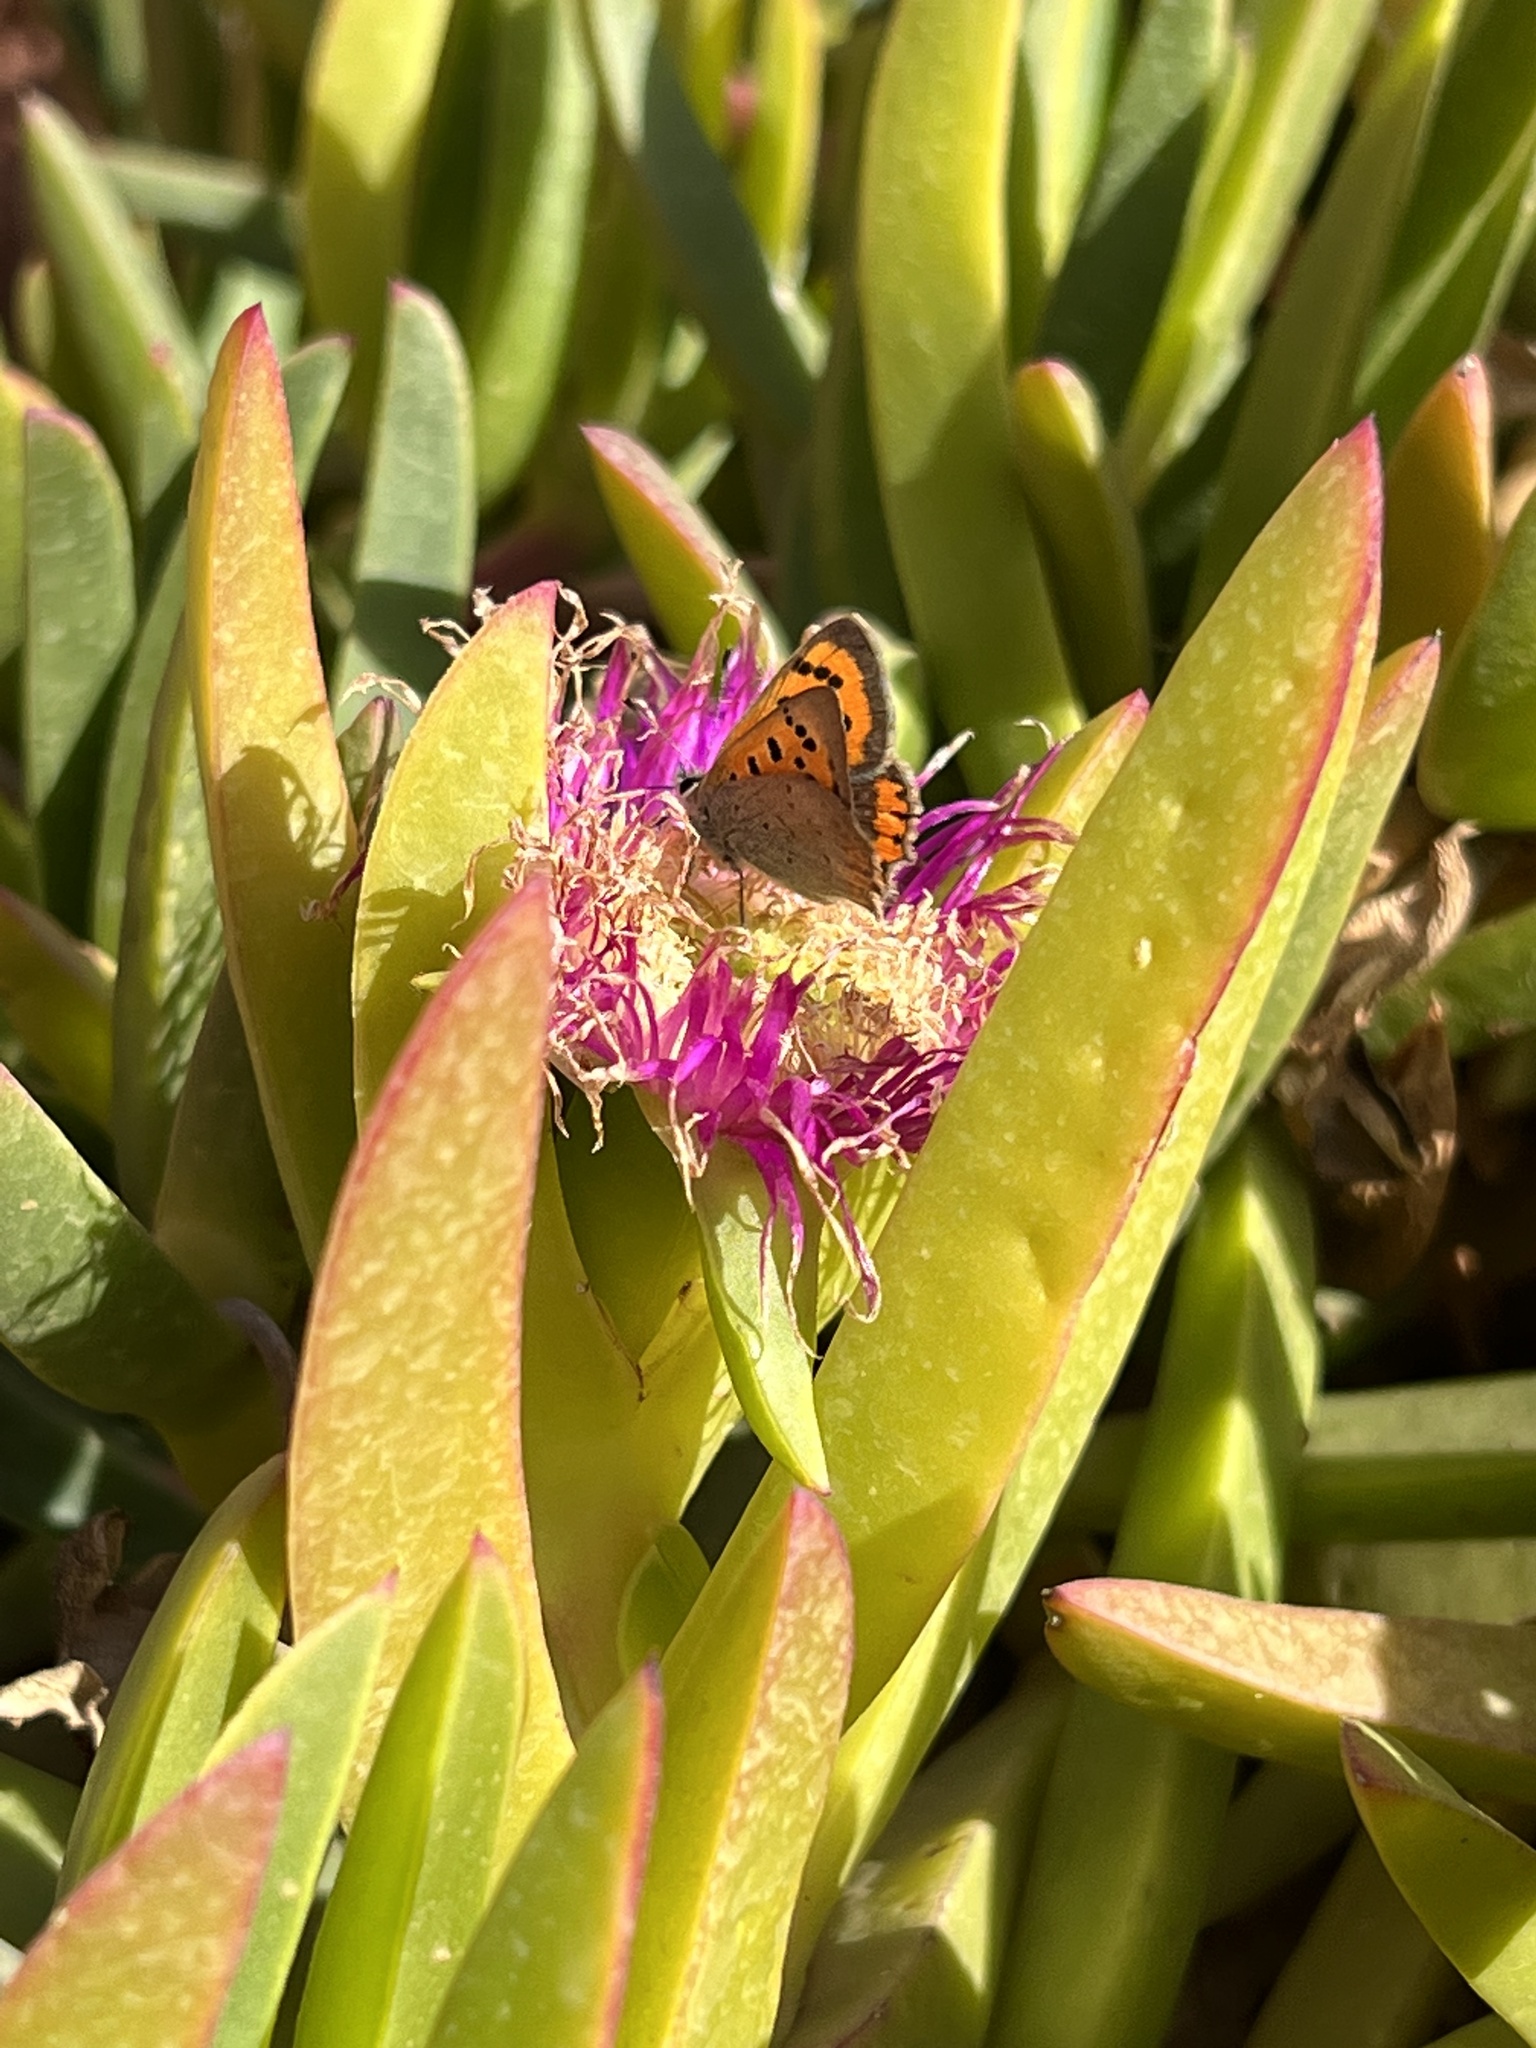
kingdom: Animalia
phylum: Arthropoda
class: Insecta
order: Lepidoptera
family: Lycaenidae
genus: Lycaena
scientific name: Lycaena phlaeas
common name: Small copper
